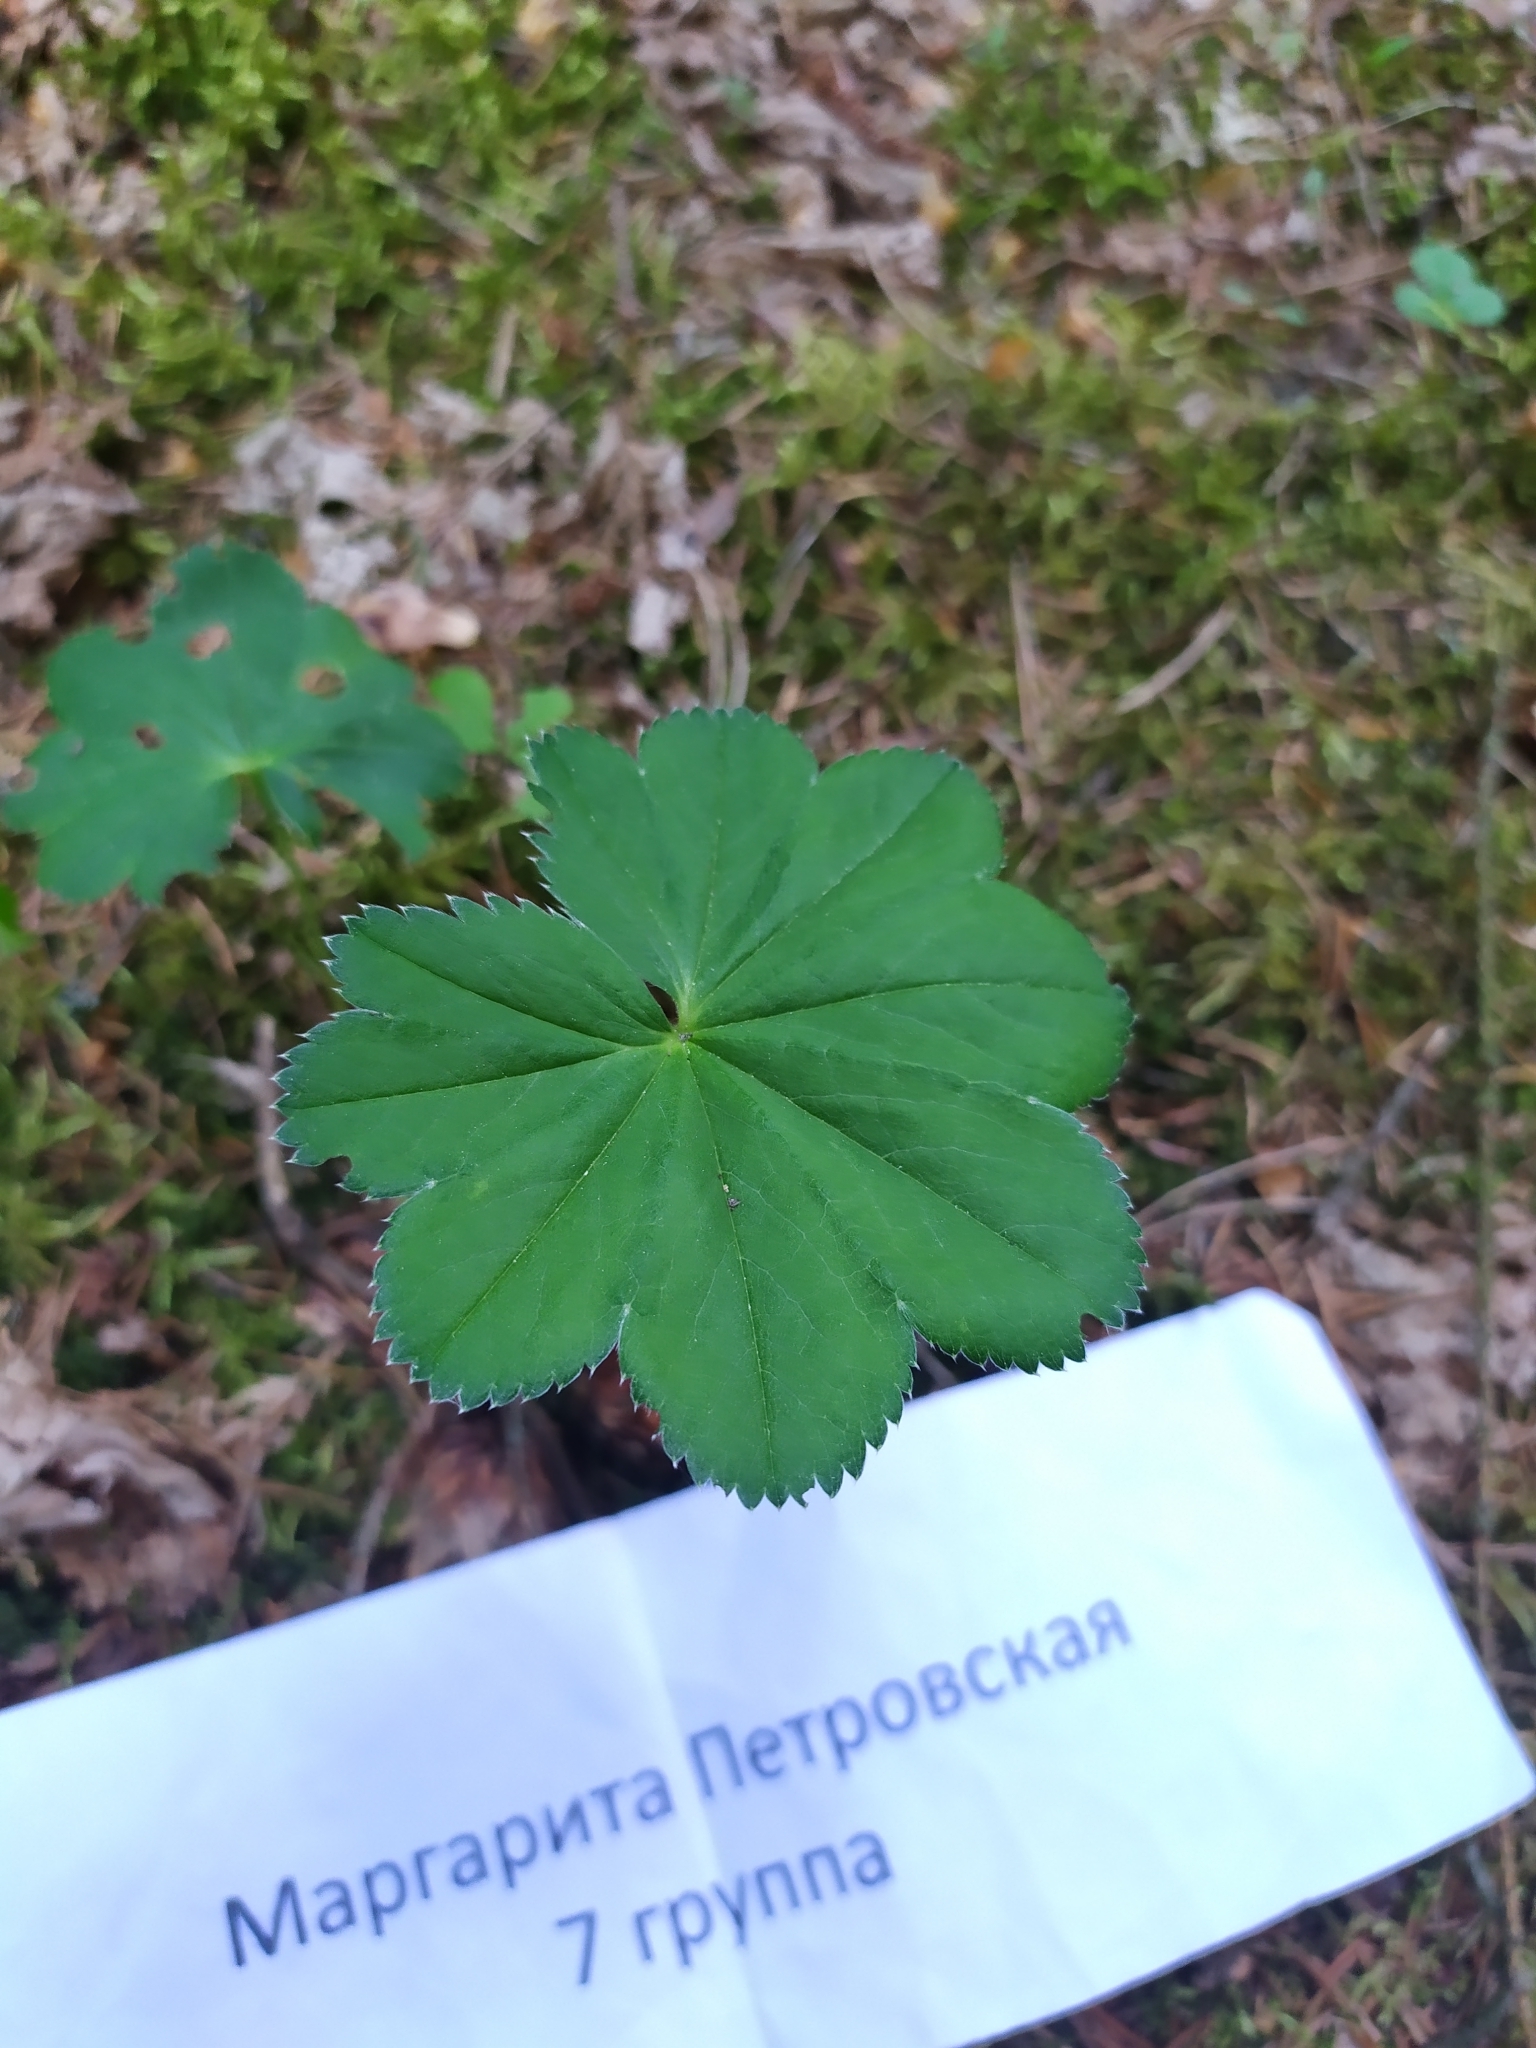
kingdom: Plantae
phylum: Tracheophyta
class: Magnoliopsida
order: Rosales
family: Rosaceae
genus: Alchemilla
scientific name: Alchemilla vulgaris
